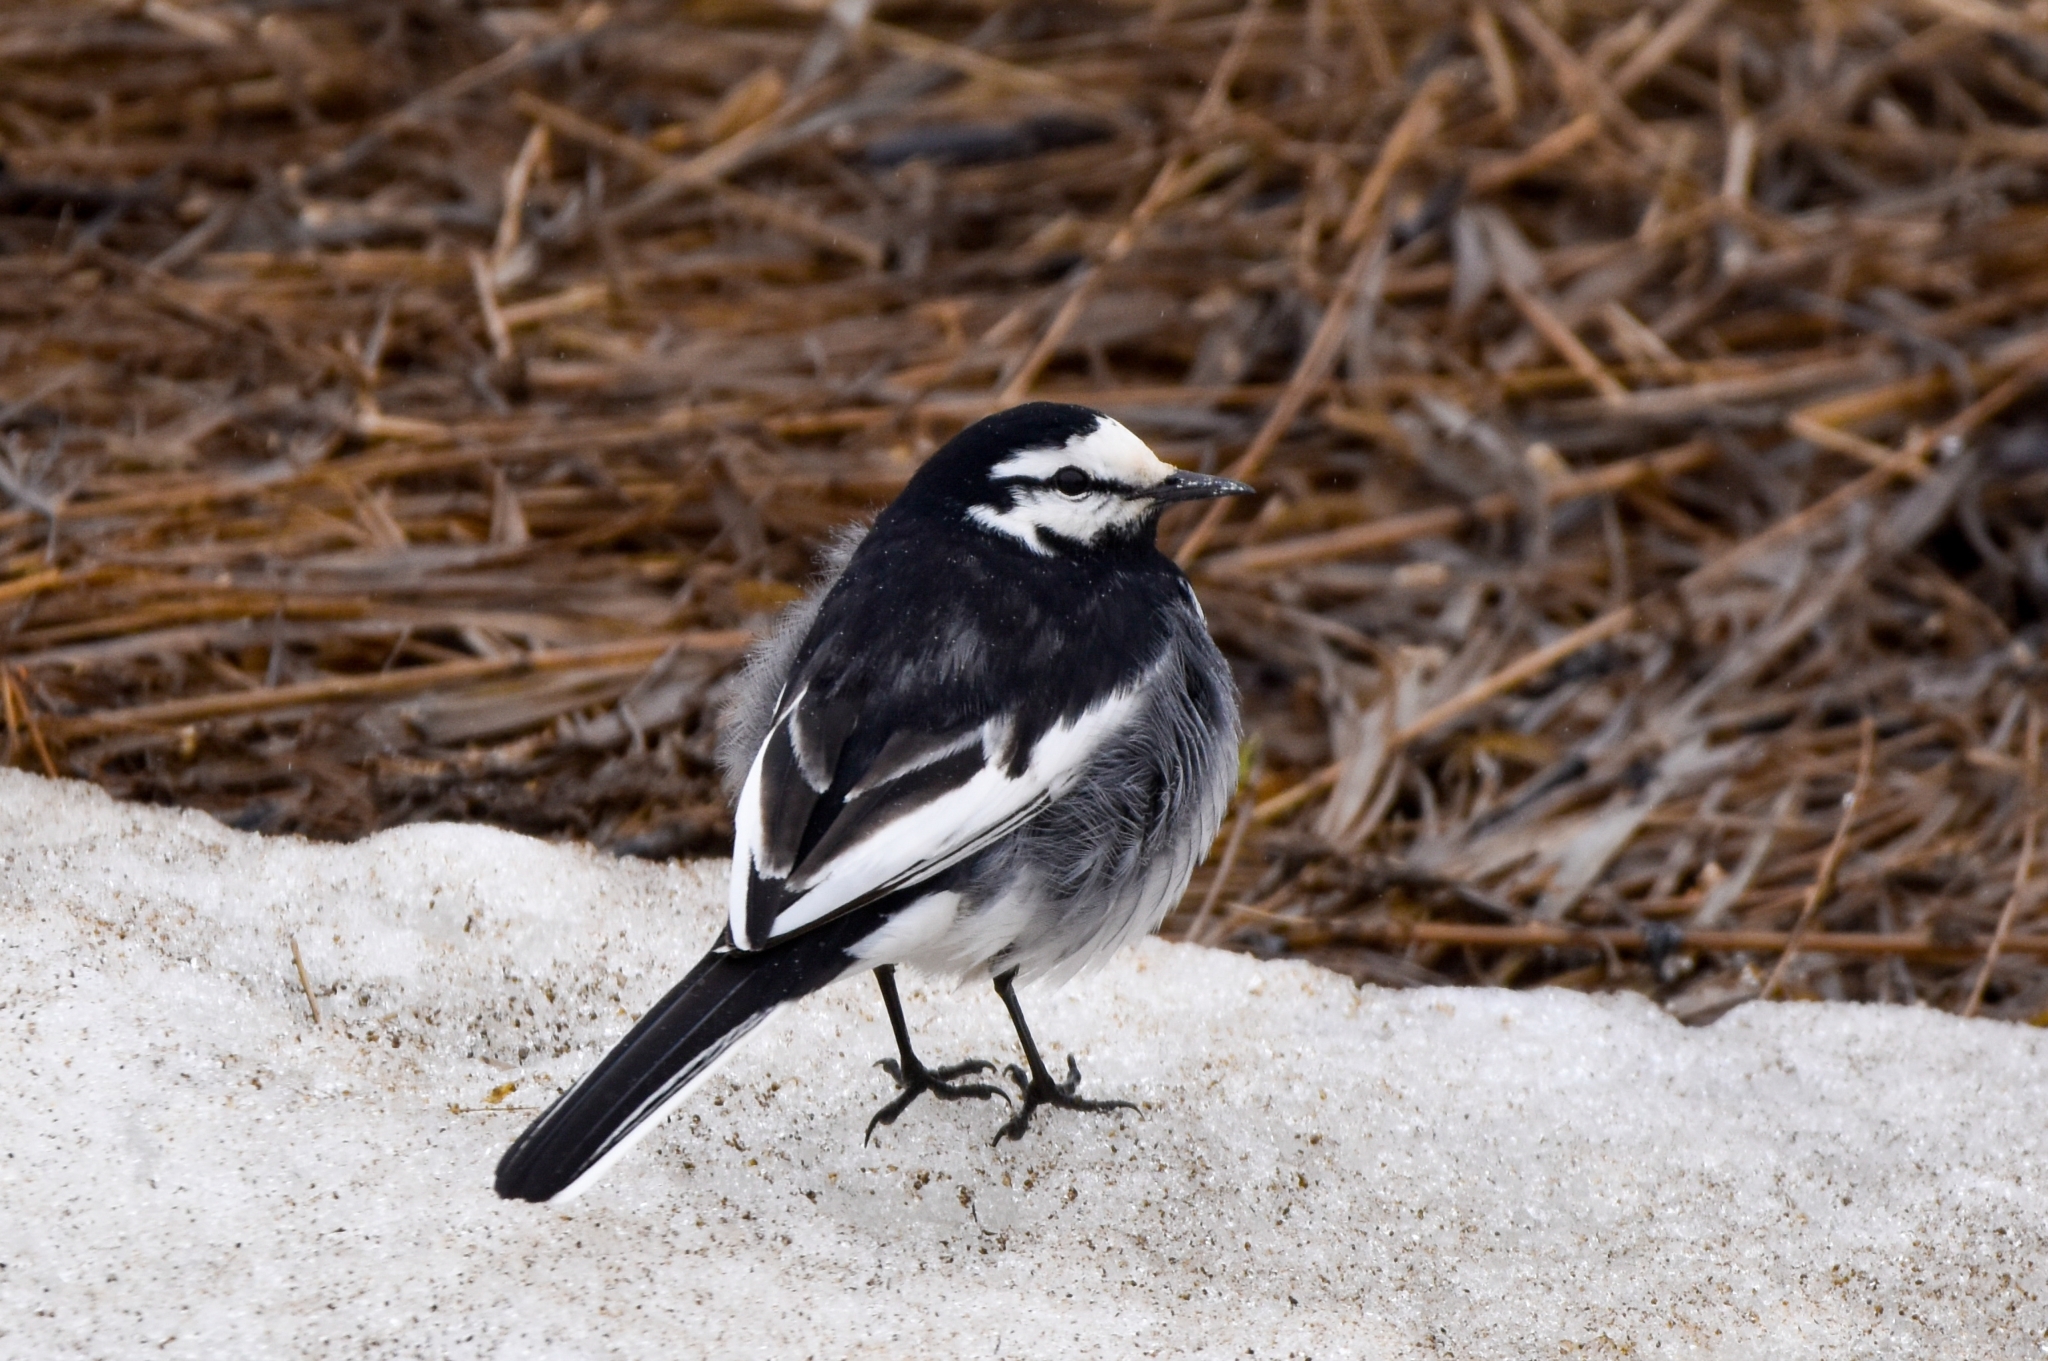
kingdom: Animalia
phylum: Chordata
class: Aves
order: Passeriformes
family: Motacillidae
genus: Motacilla
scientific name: Motacilla alba
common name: White wagtail
